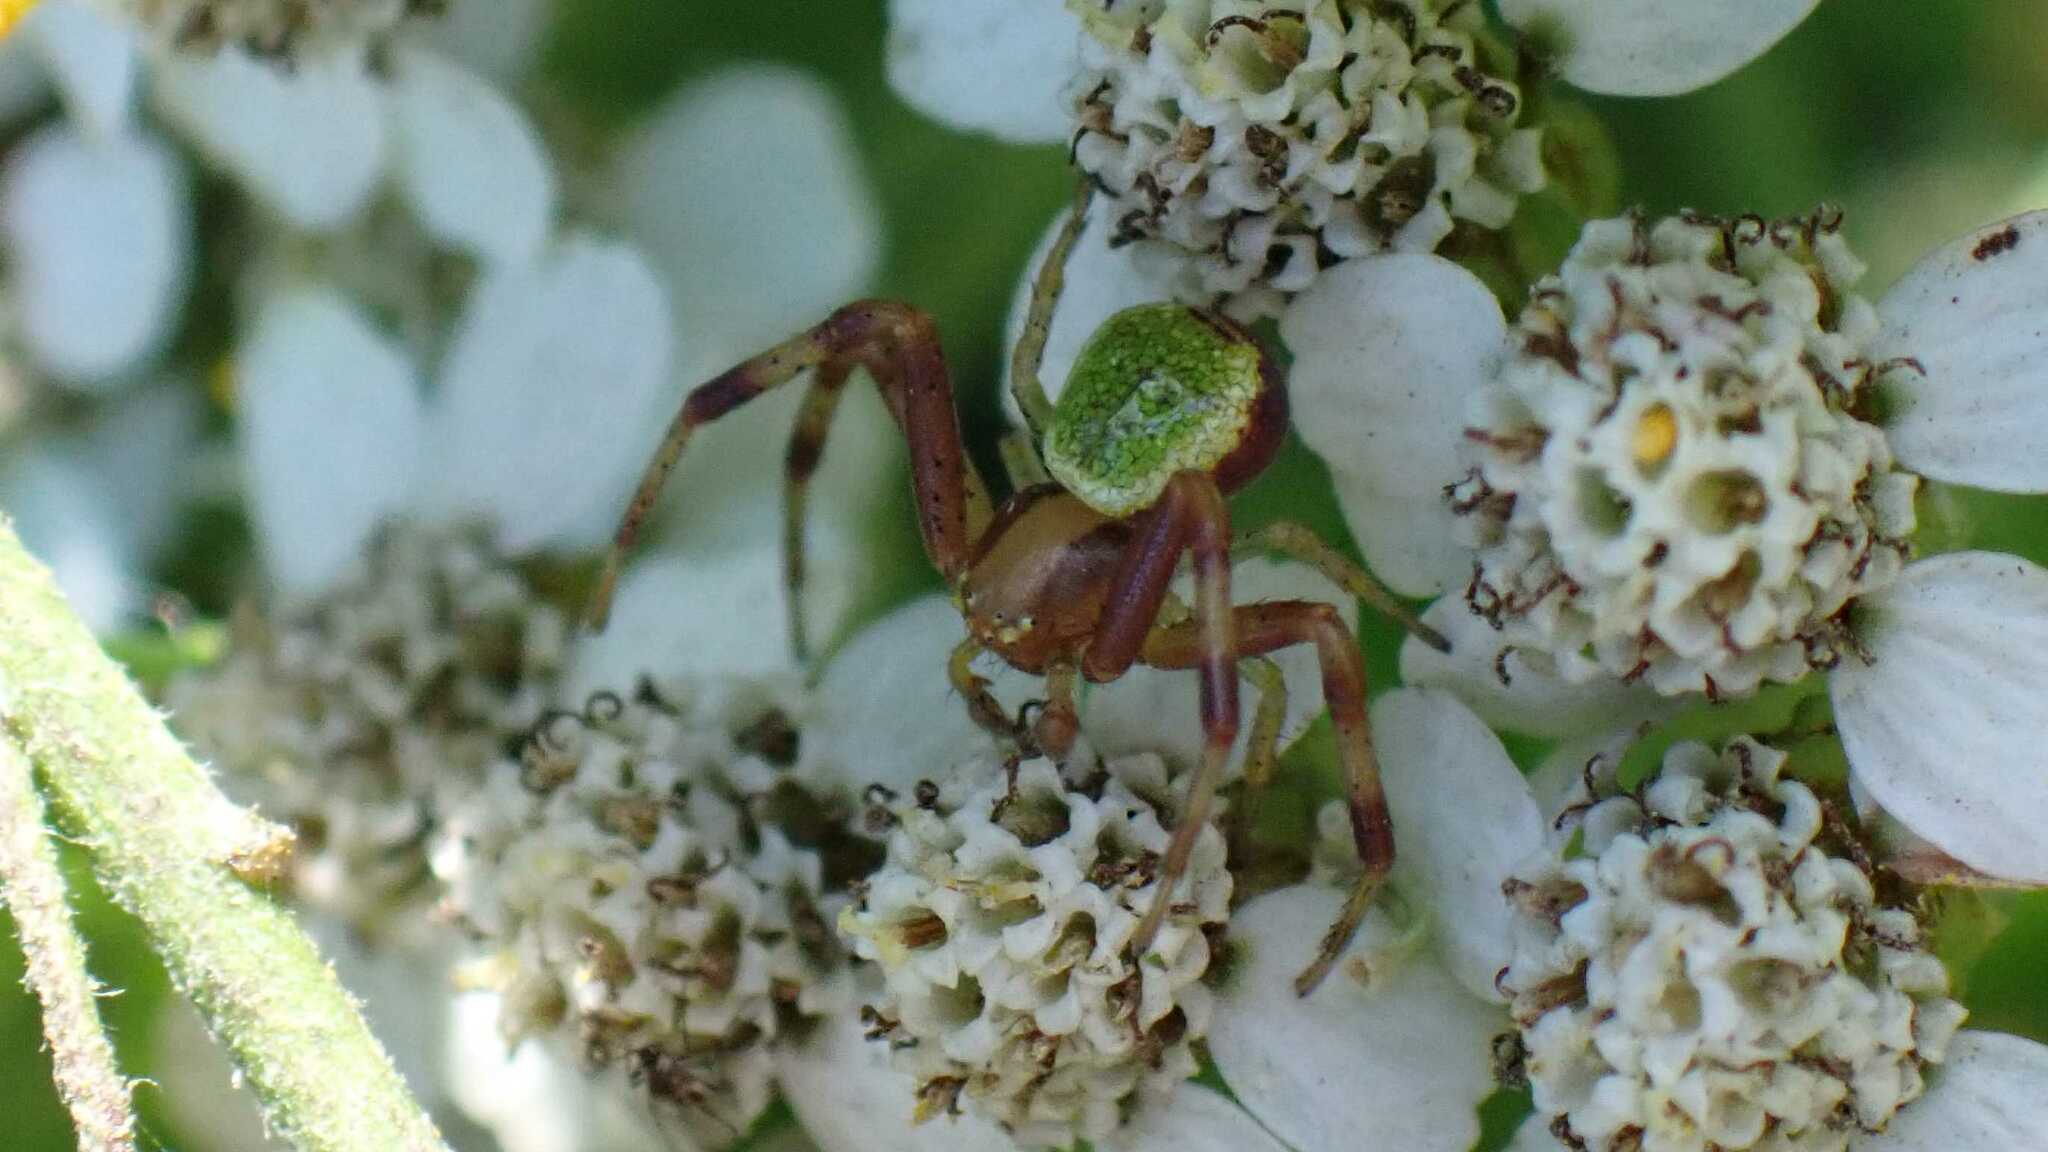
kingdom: Animalia
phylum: Arthropoda
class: Arachnida
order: Araneae
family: Thomisidae
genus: Ebrechtella
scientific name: Ebrechtella tricuspidata
